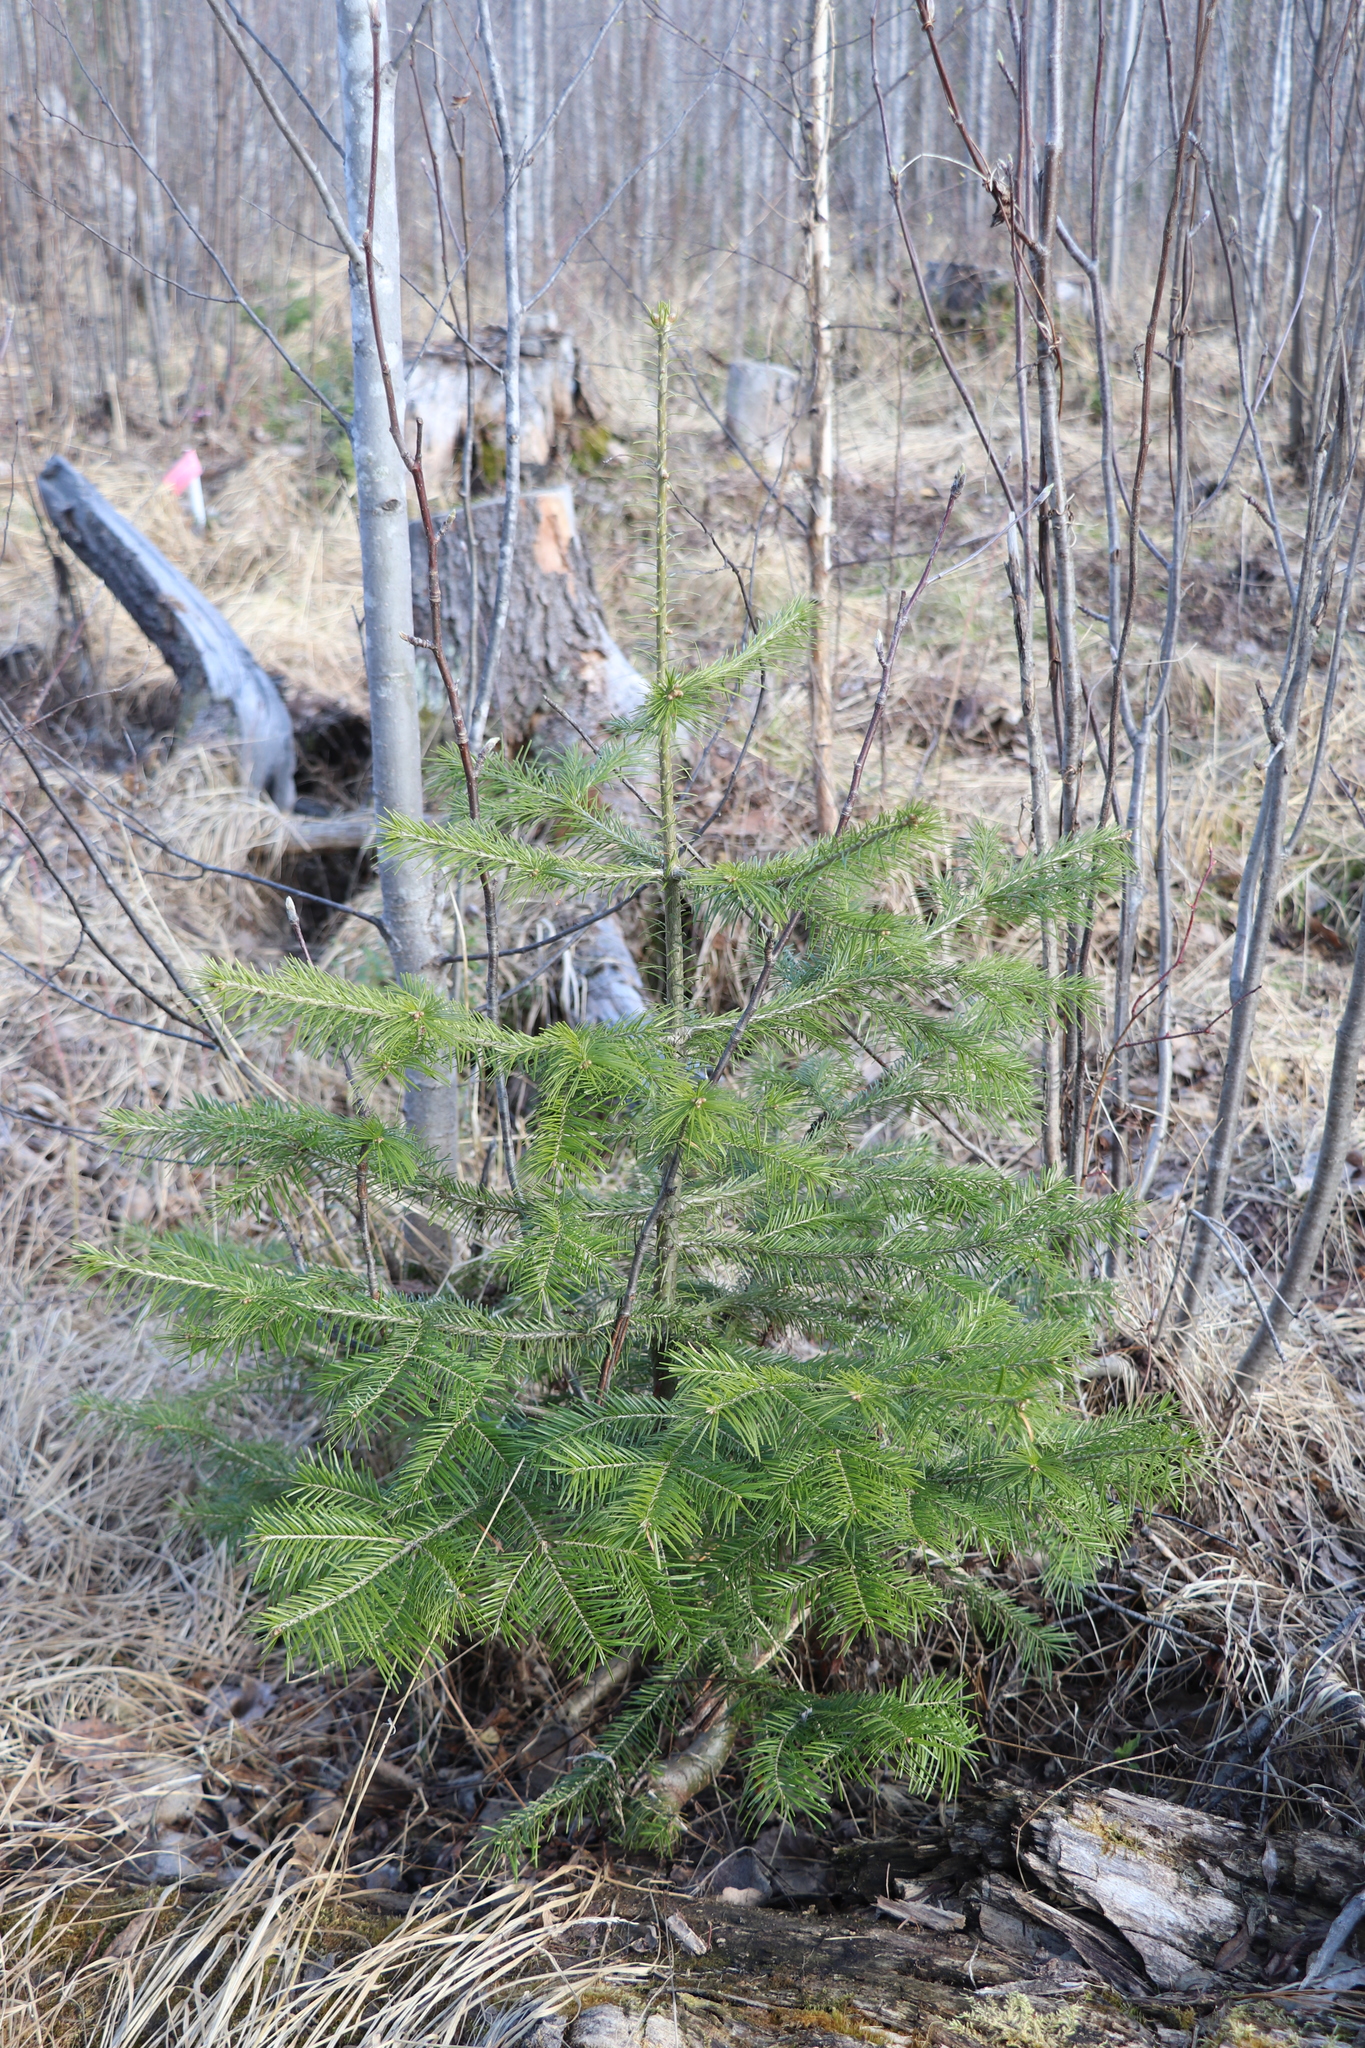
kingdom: Plantae
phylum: Tracheophyta
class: Pinopsida
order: Pinales
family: Pinaceae
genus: Abies
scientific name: Abies sibirica
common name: Siberian fir
